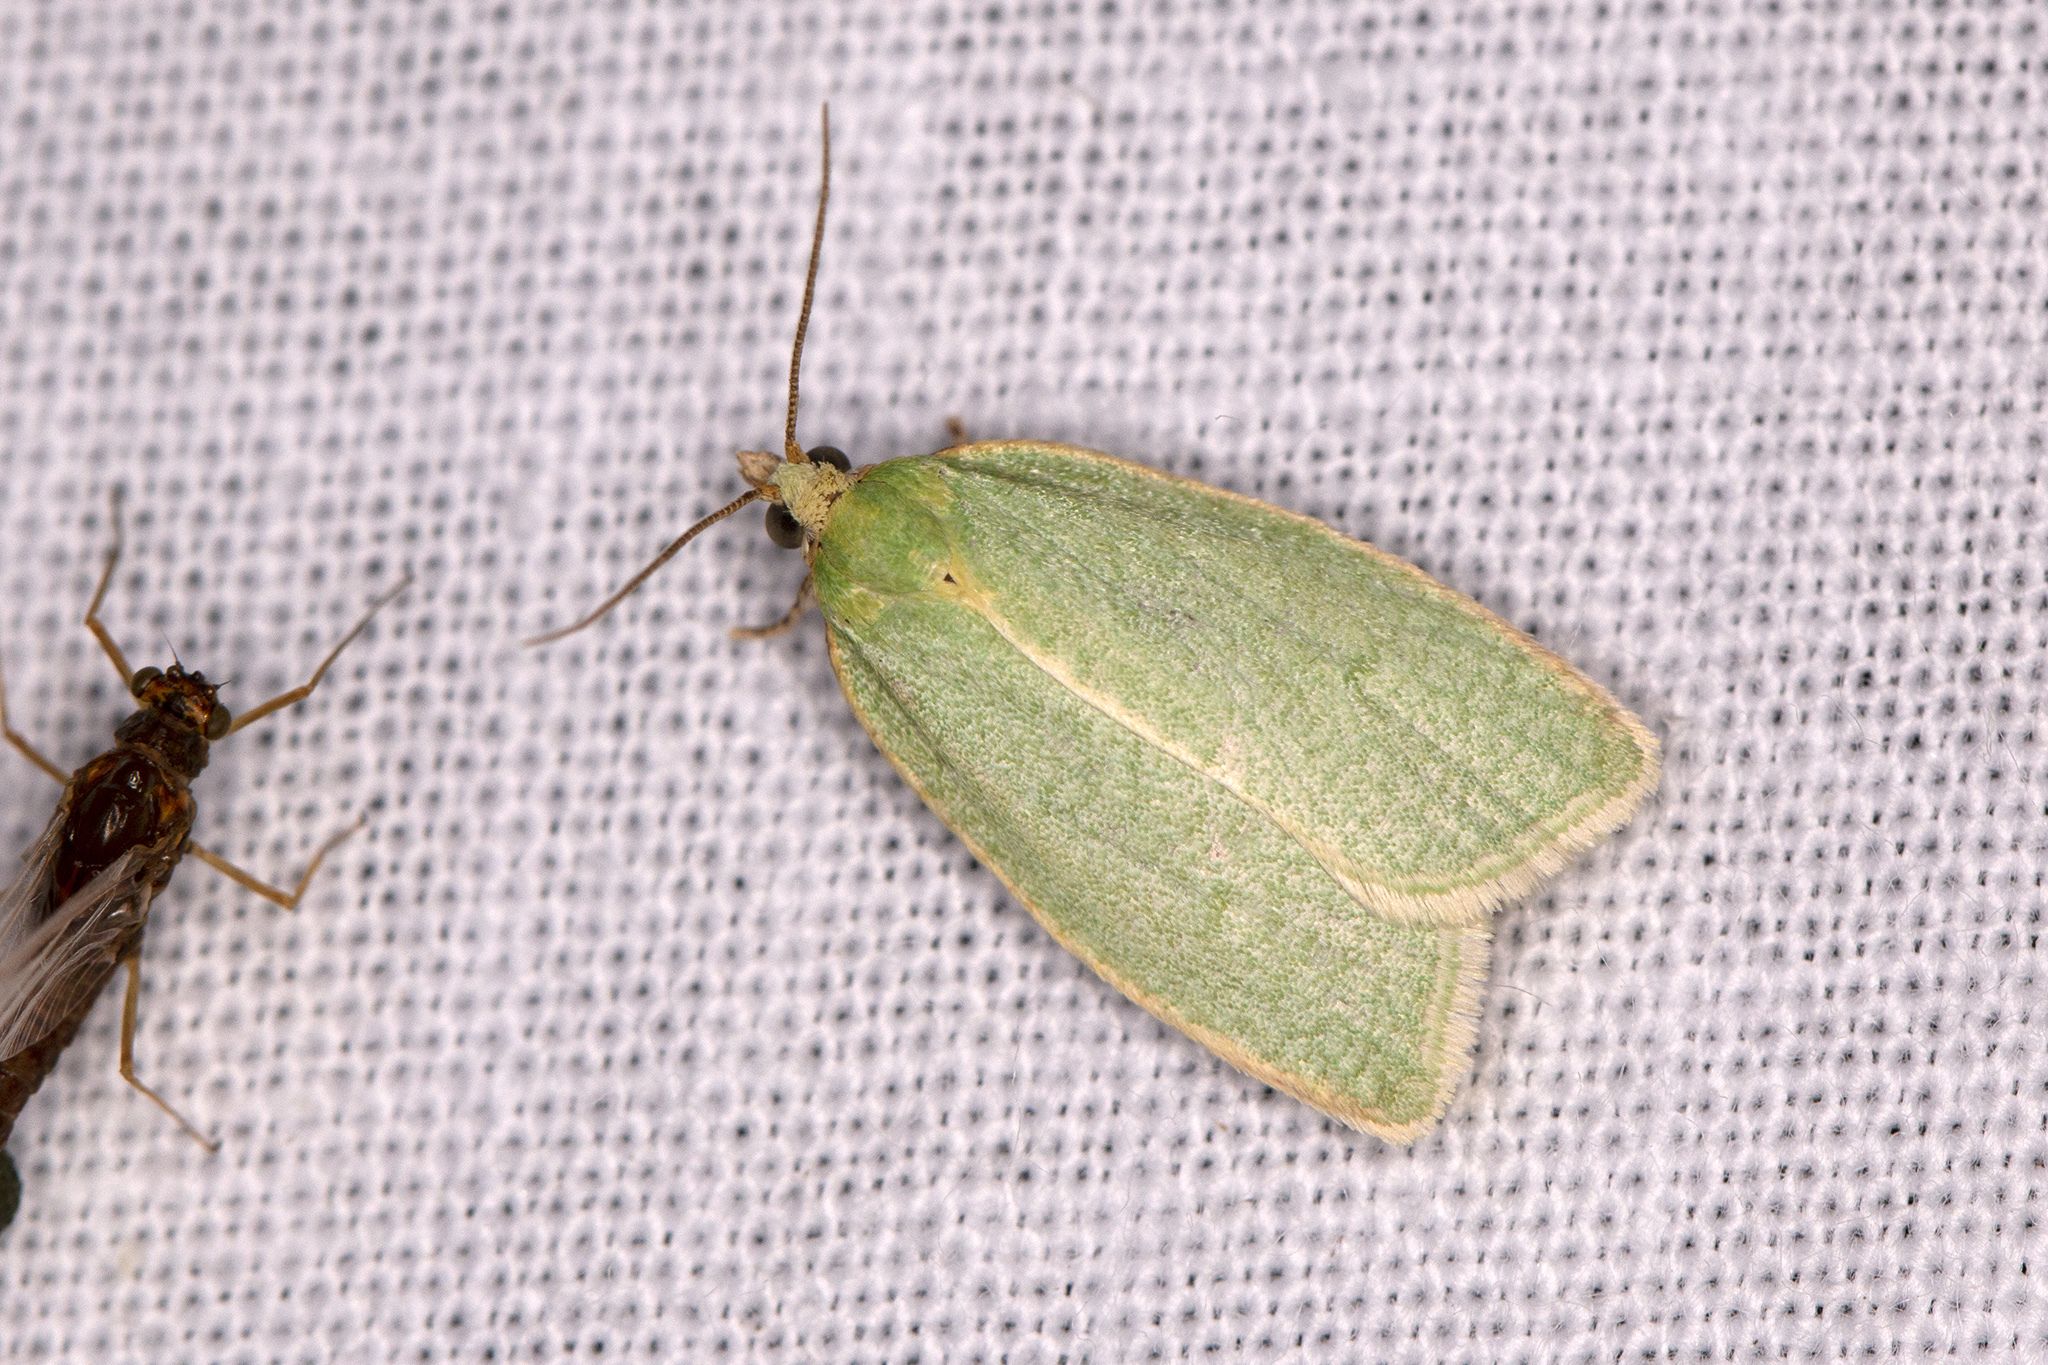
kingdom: Animalia
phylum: Arthropoda
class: Insecta
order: Lepidoptera
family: Tortricidae
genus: Tortrix
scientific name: Tortrix viridana
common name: Green oak tortrix
